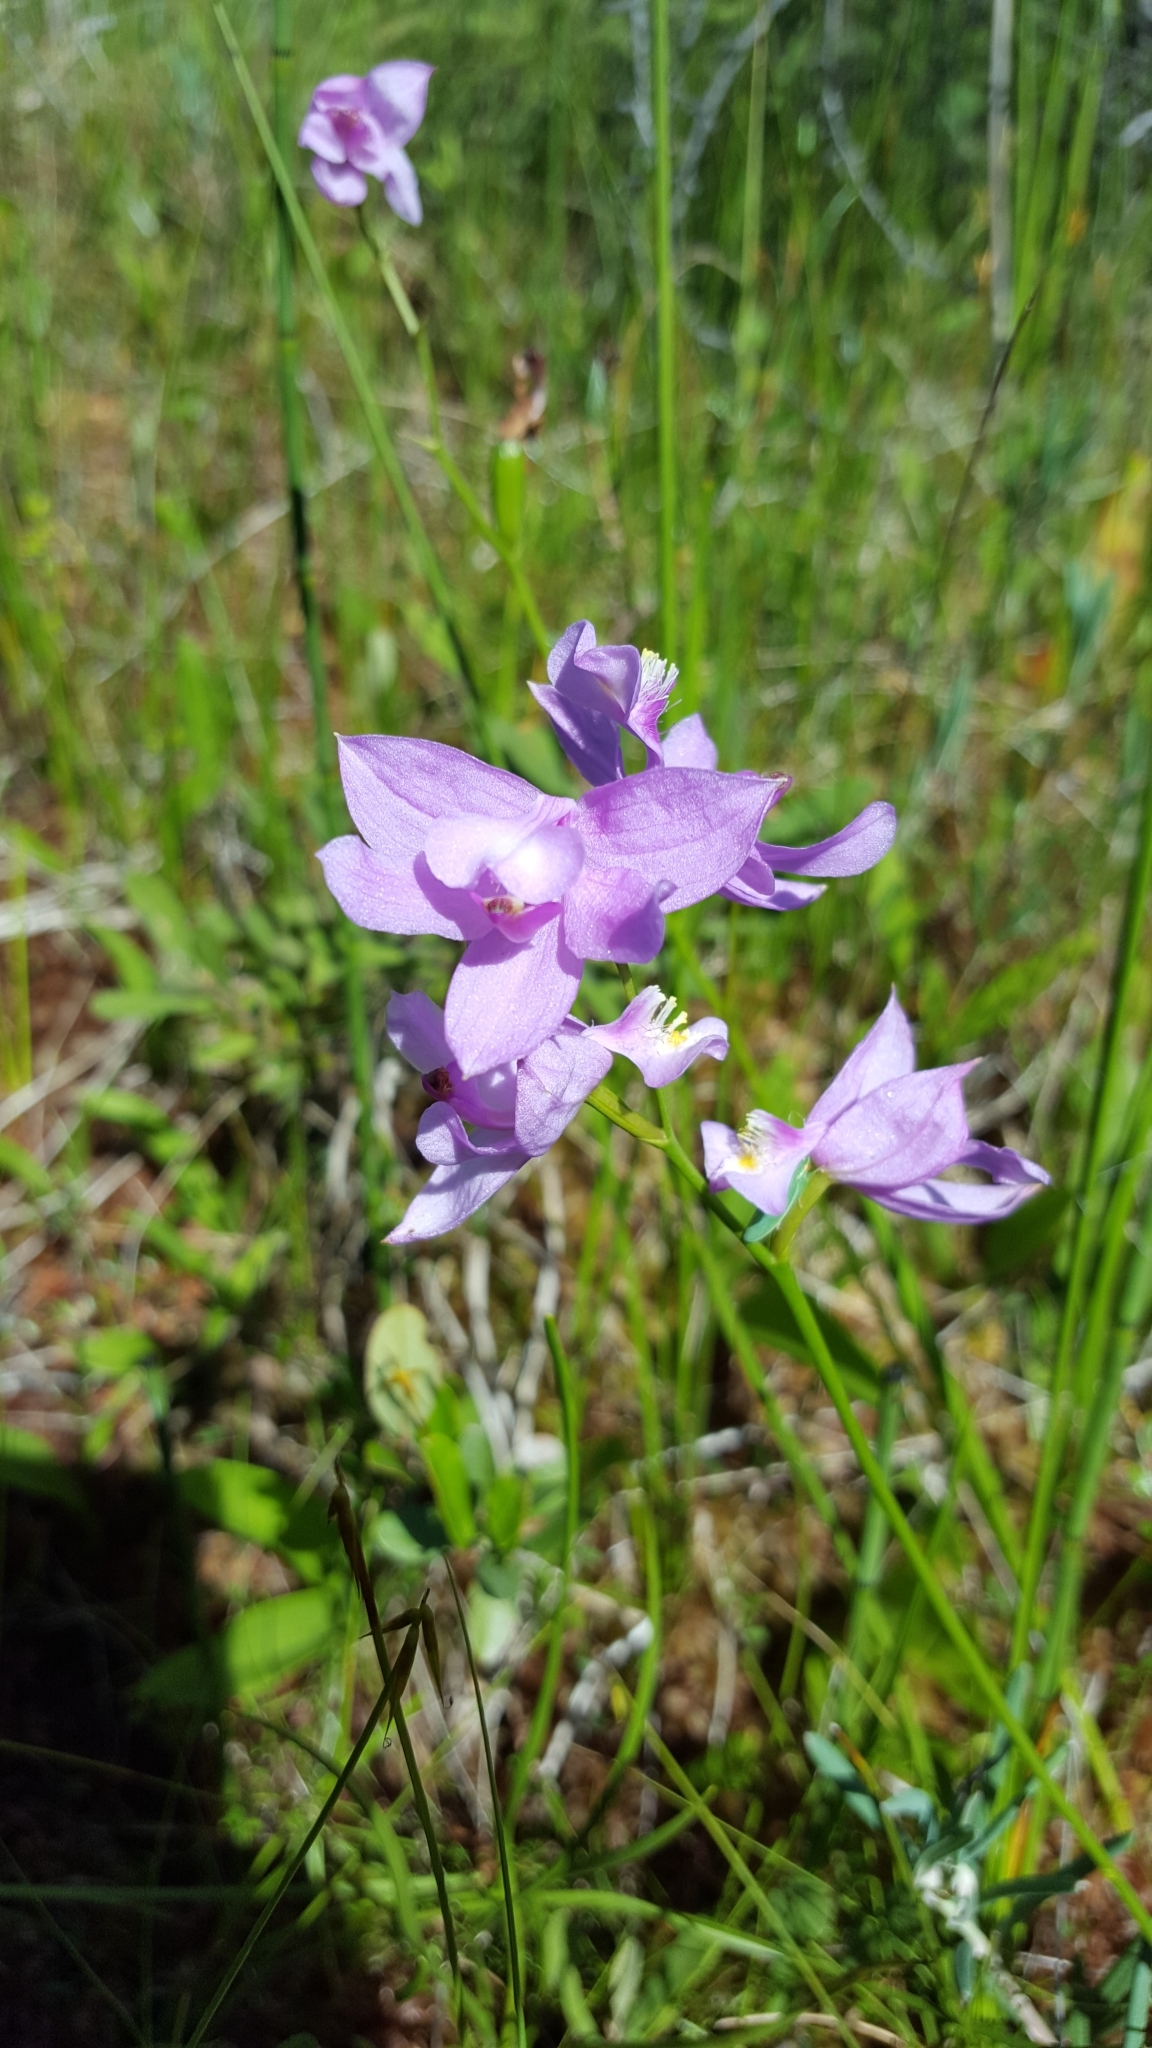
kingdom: Plantae
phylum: Tracheophyta
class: Liliopsida
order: Asparagales
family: Orchidaceae
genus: Calopogon
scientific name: Calopogon tuberosus
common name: Grass-pink
